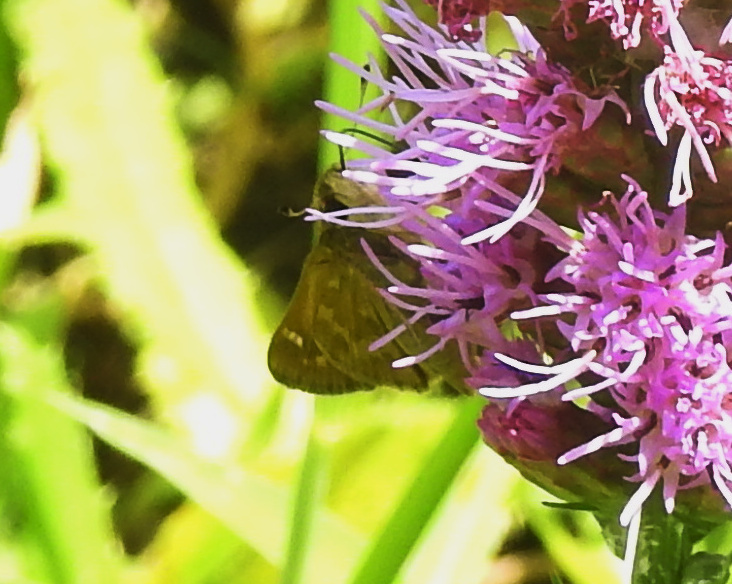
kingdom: Animalia
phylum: Arthropoda
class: Insecta
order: Lepidoptera
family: Hesperiidae
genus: Atalopedes
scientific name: Atalopedes
